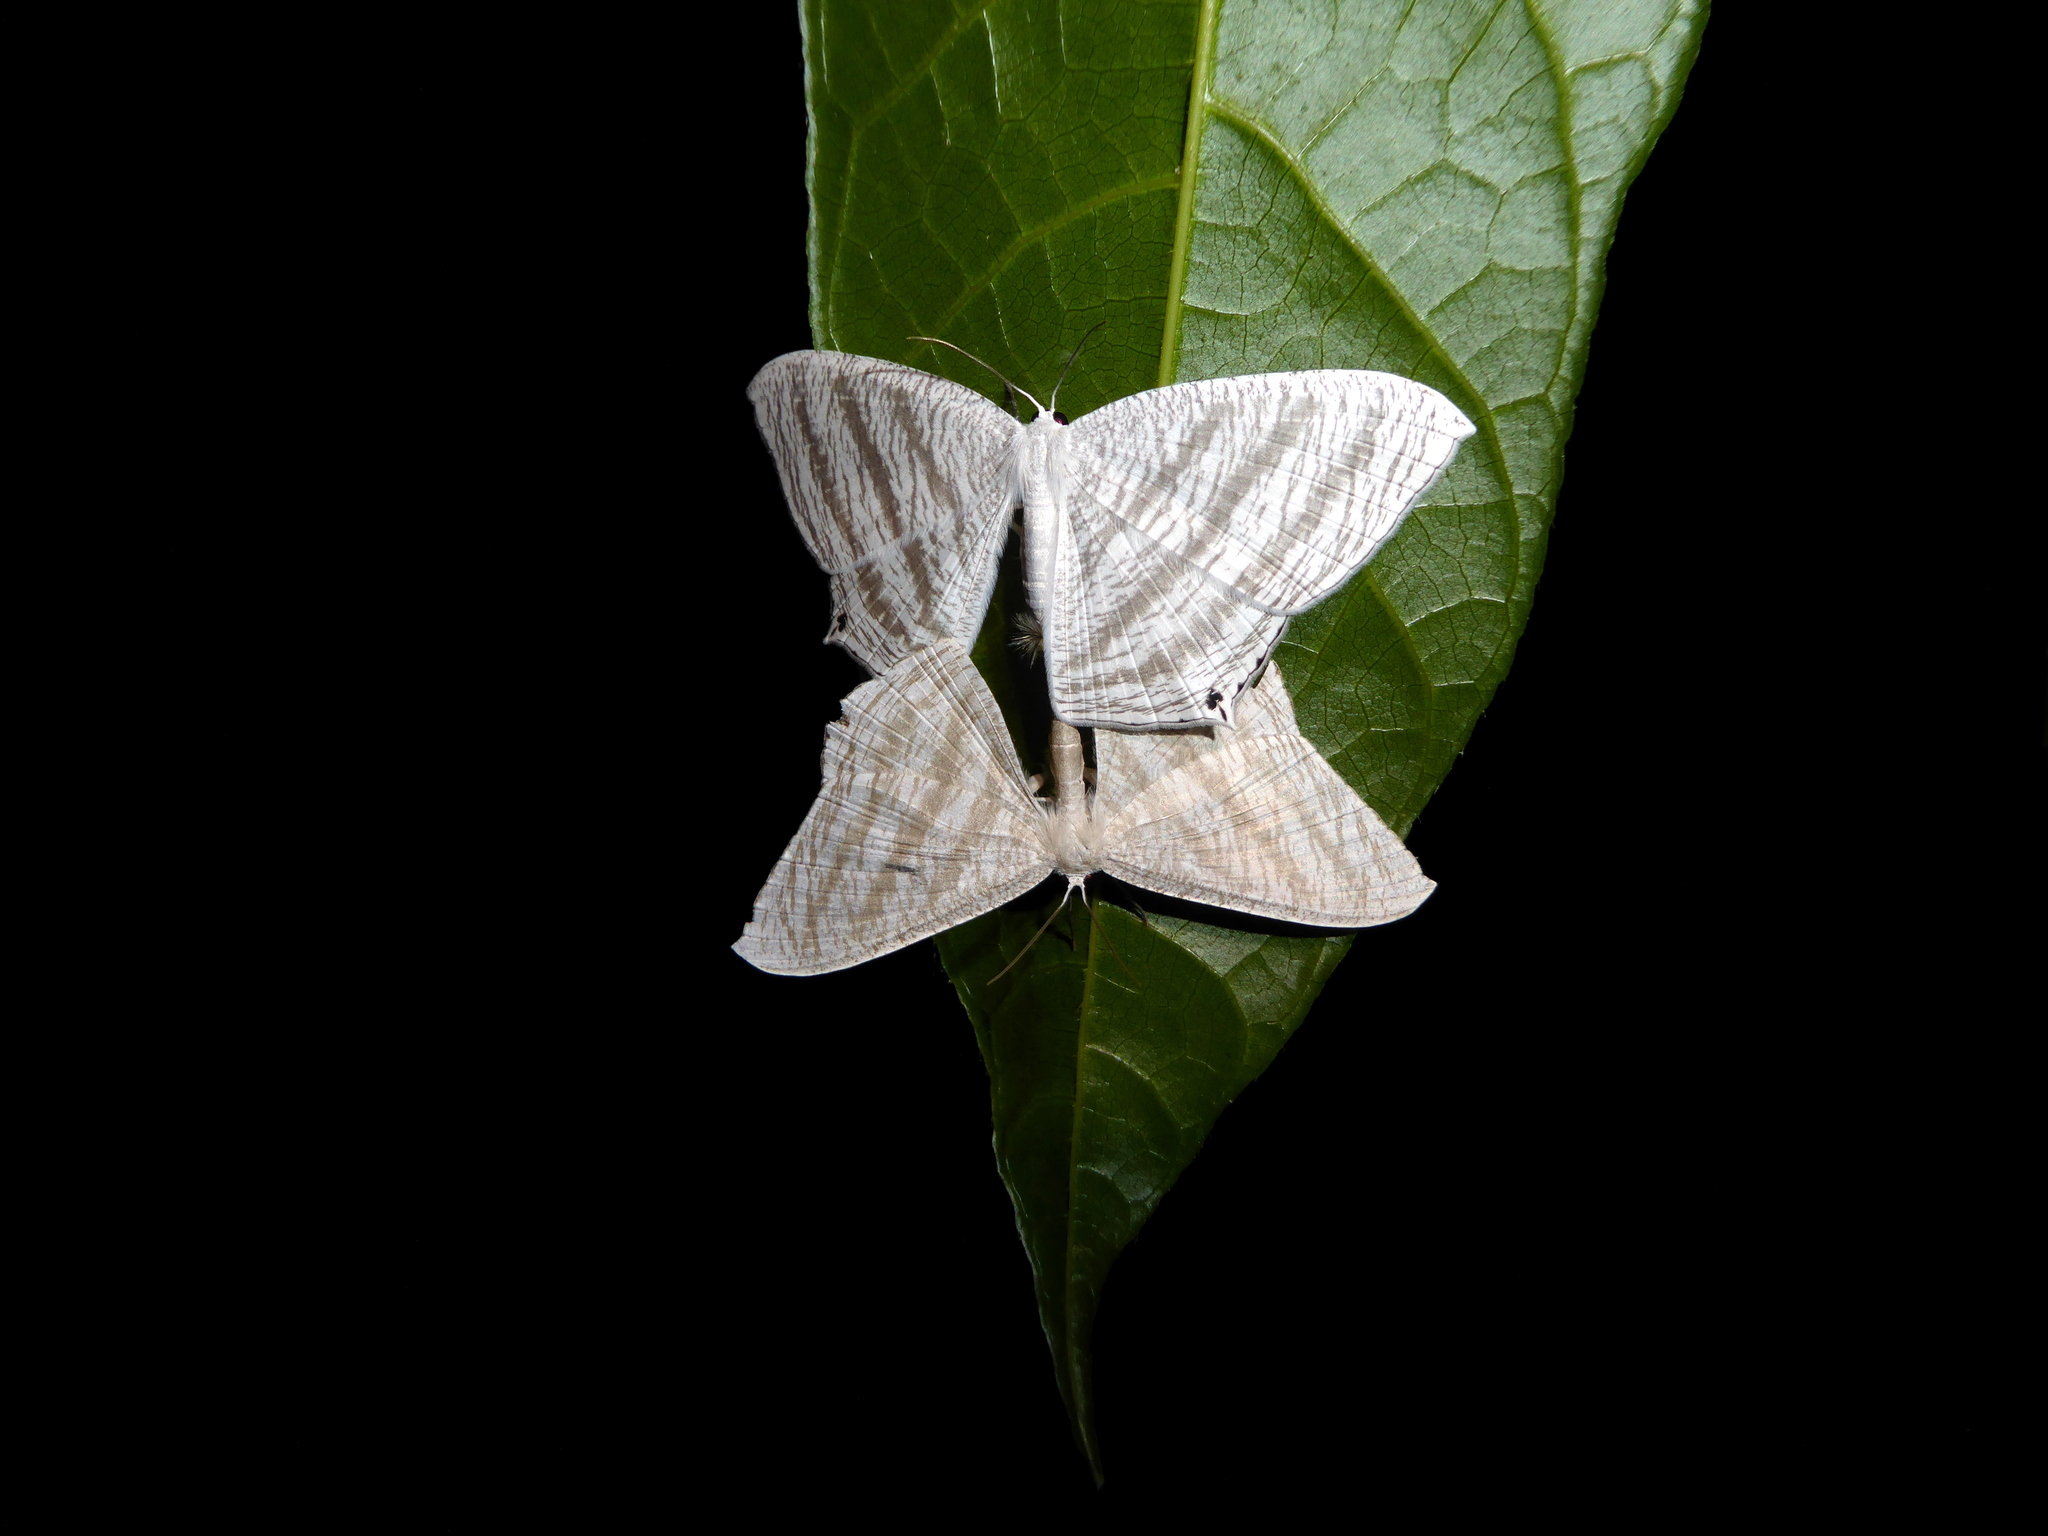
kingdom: Animalia
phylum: Arthropoda
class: Insecta
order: Lepidoptera
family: Uraniidae
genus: Micronia
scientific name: Micronia aculeata
